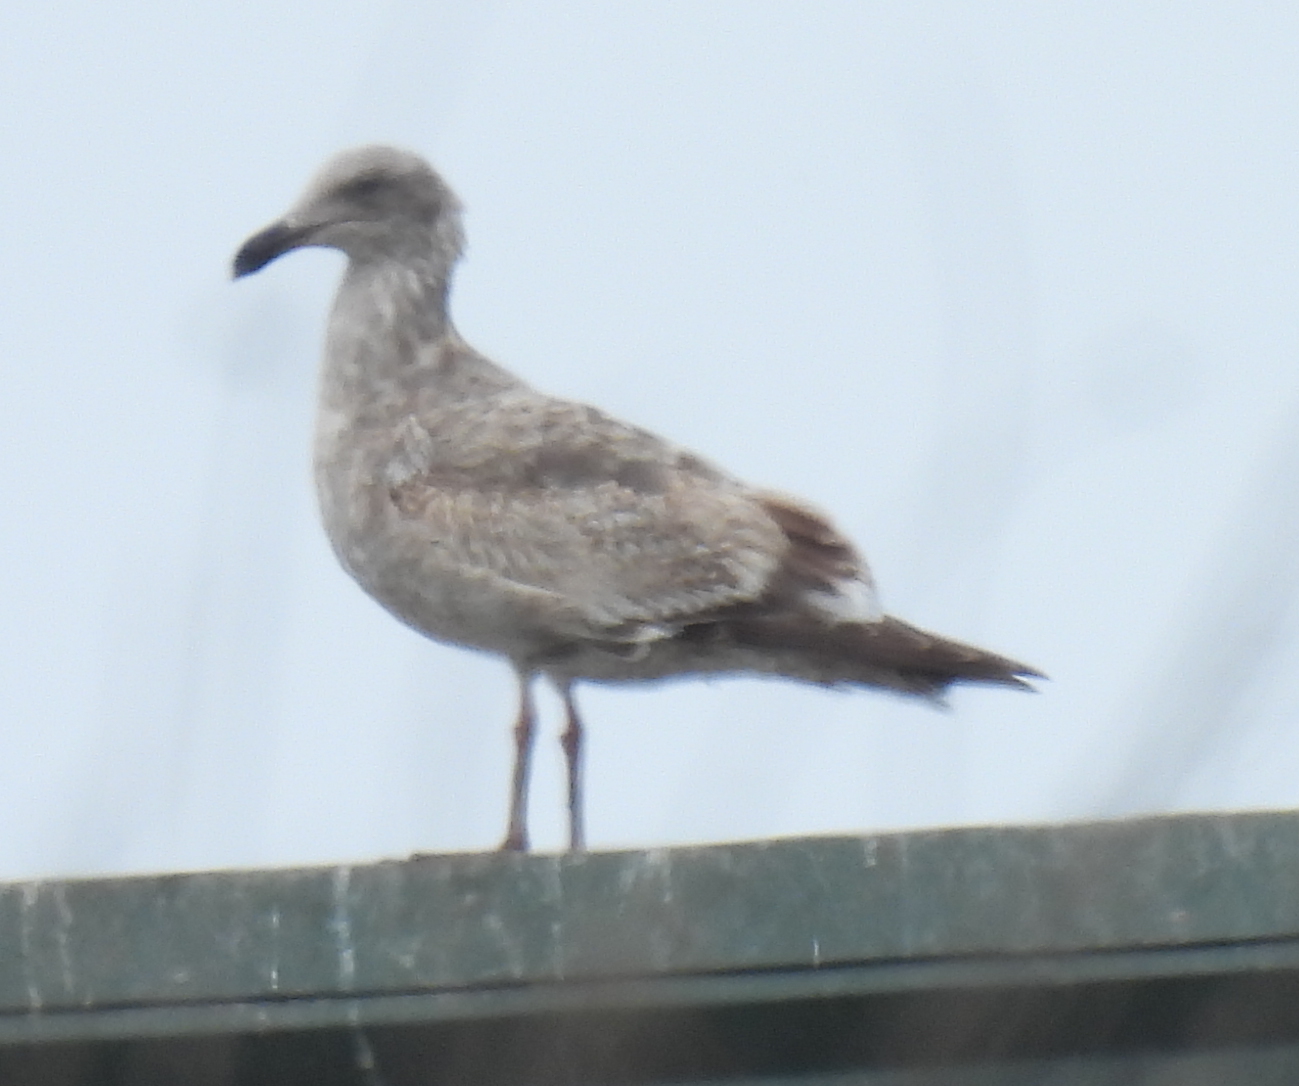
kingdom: Animalia
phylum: Chordata
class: Aves
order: Charadriiformes
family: Laridae
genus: Larus
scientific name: Larus occidentalis
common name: Western gull
